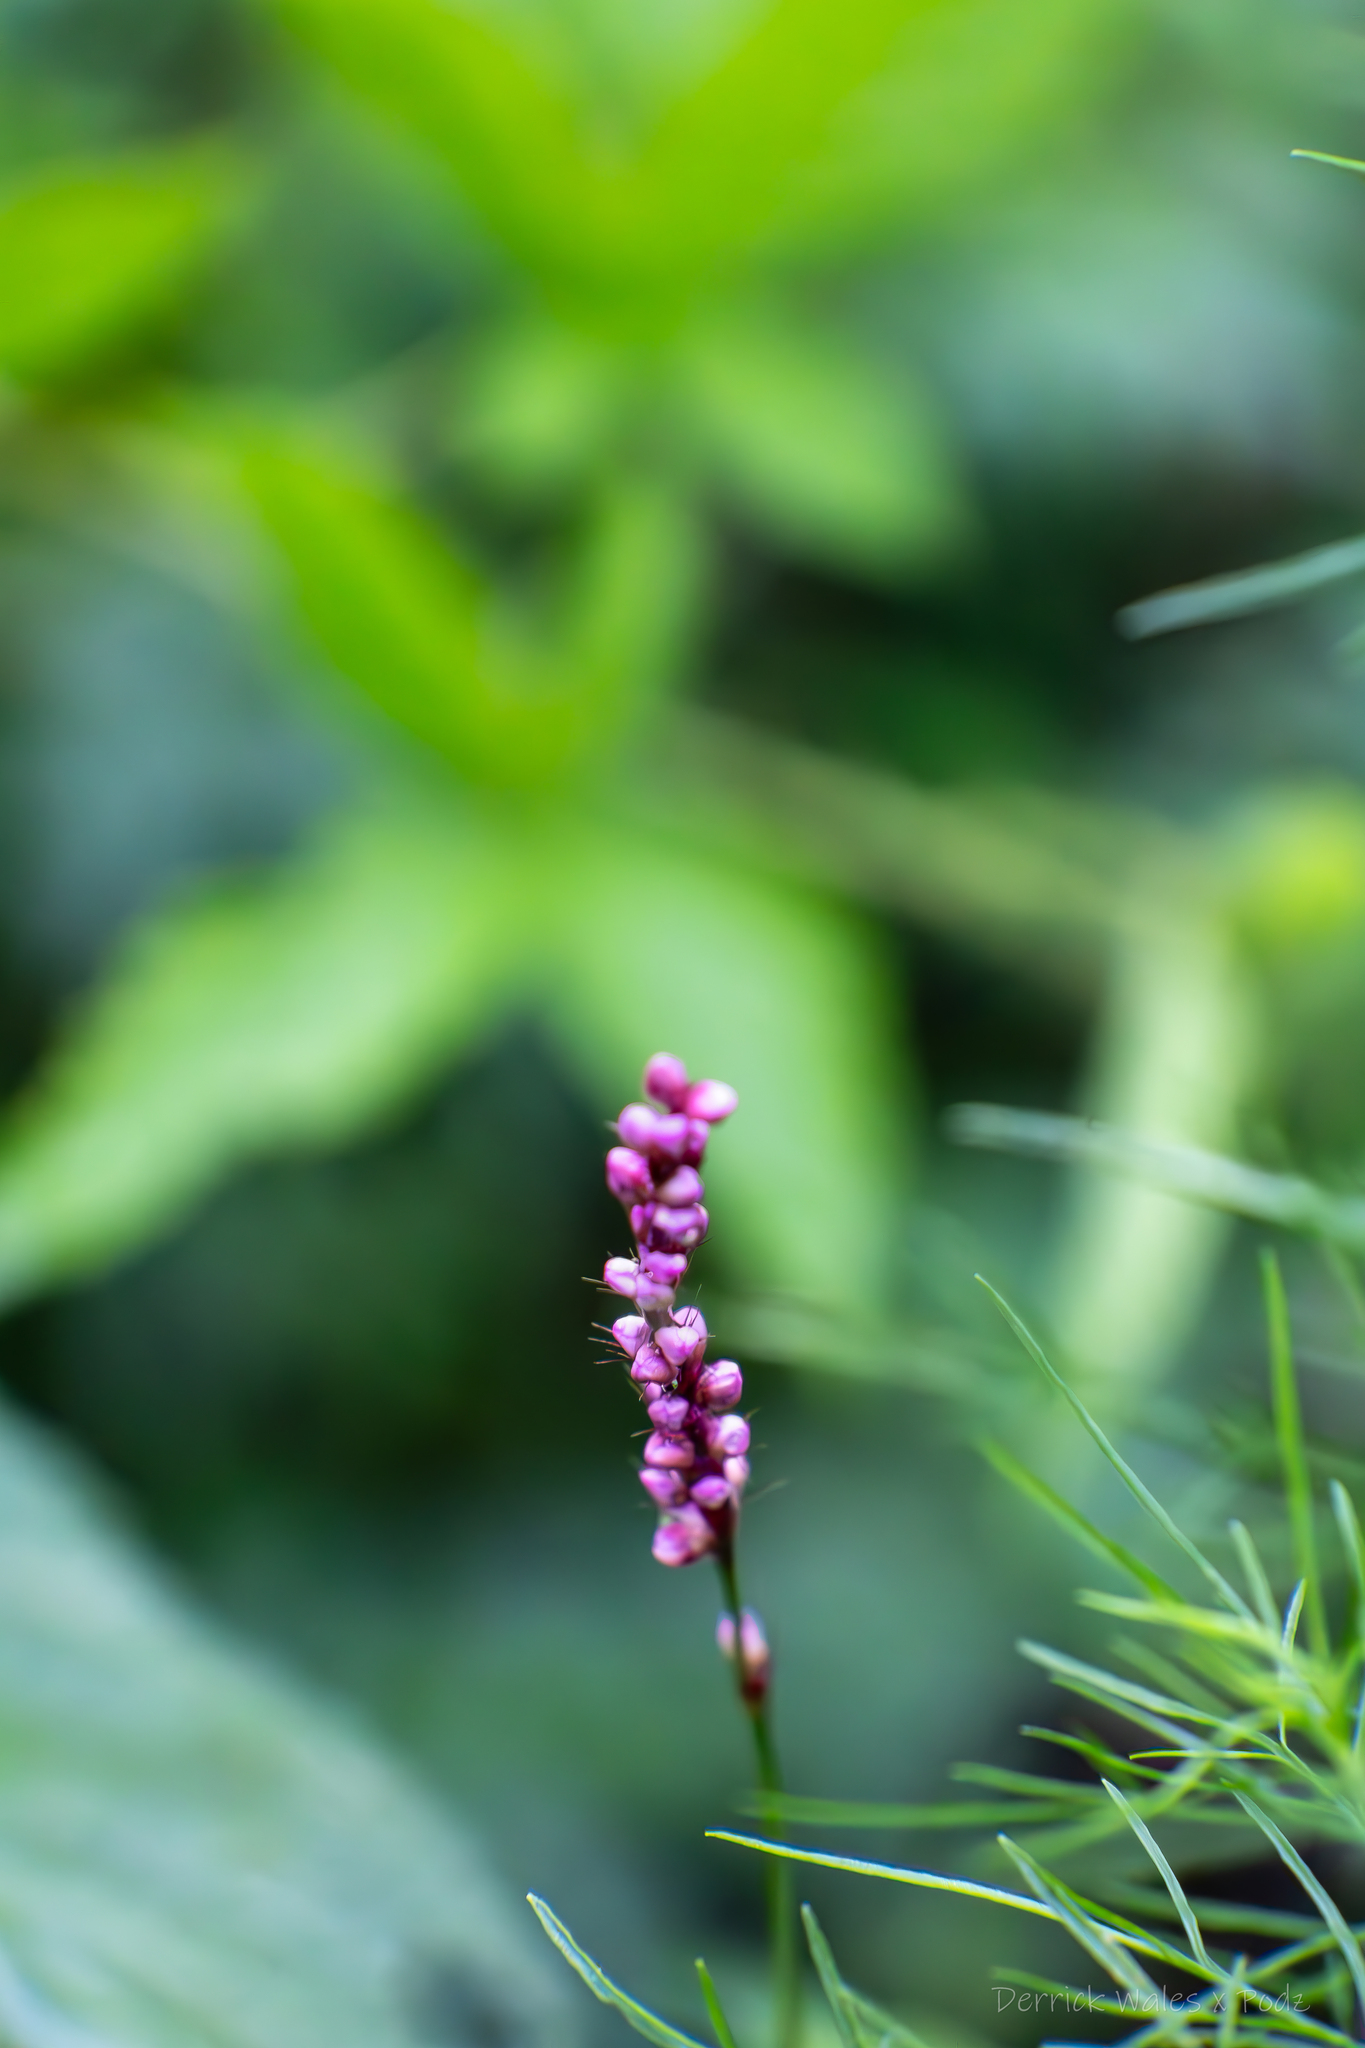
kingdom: Plantae
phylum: Tracheophyta
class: Magnoliopsida
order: Caryophyllales
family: Polygonaceae
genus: Persicaria
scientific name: Persicaria longiseta
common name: Bristly lady's-thumb
